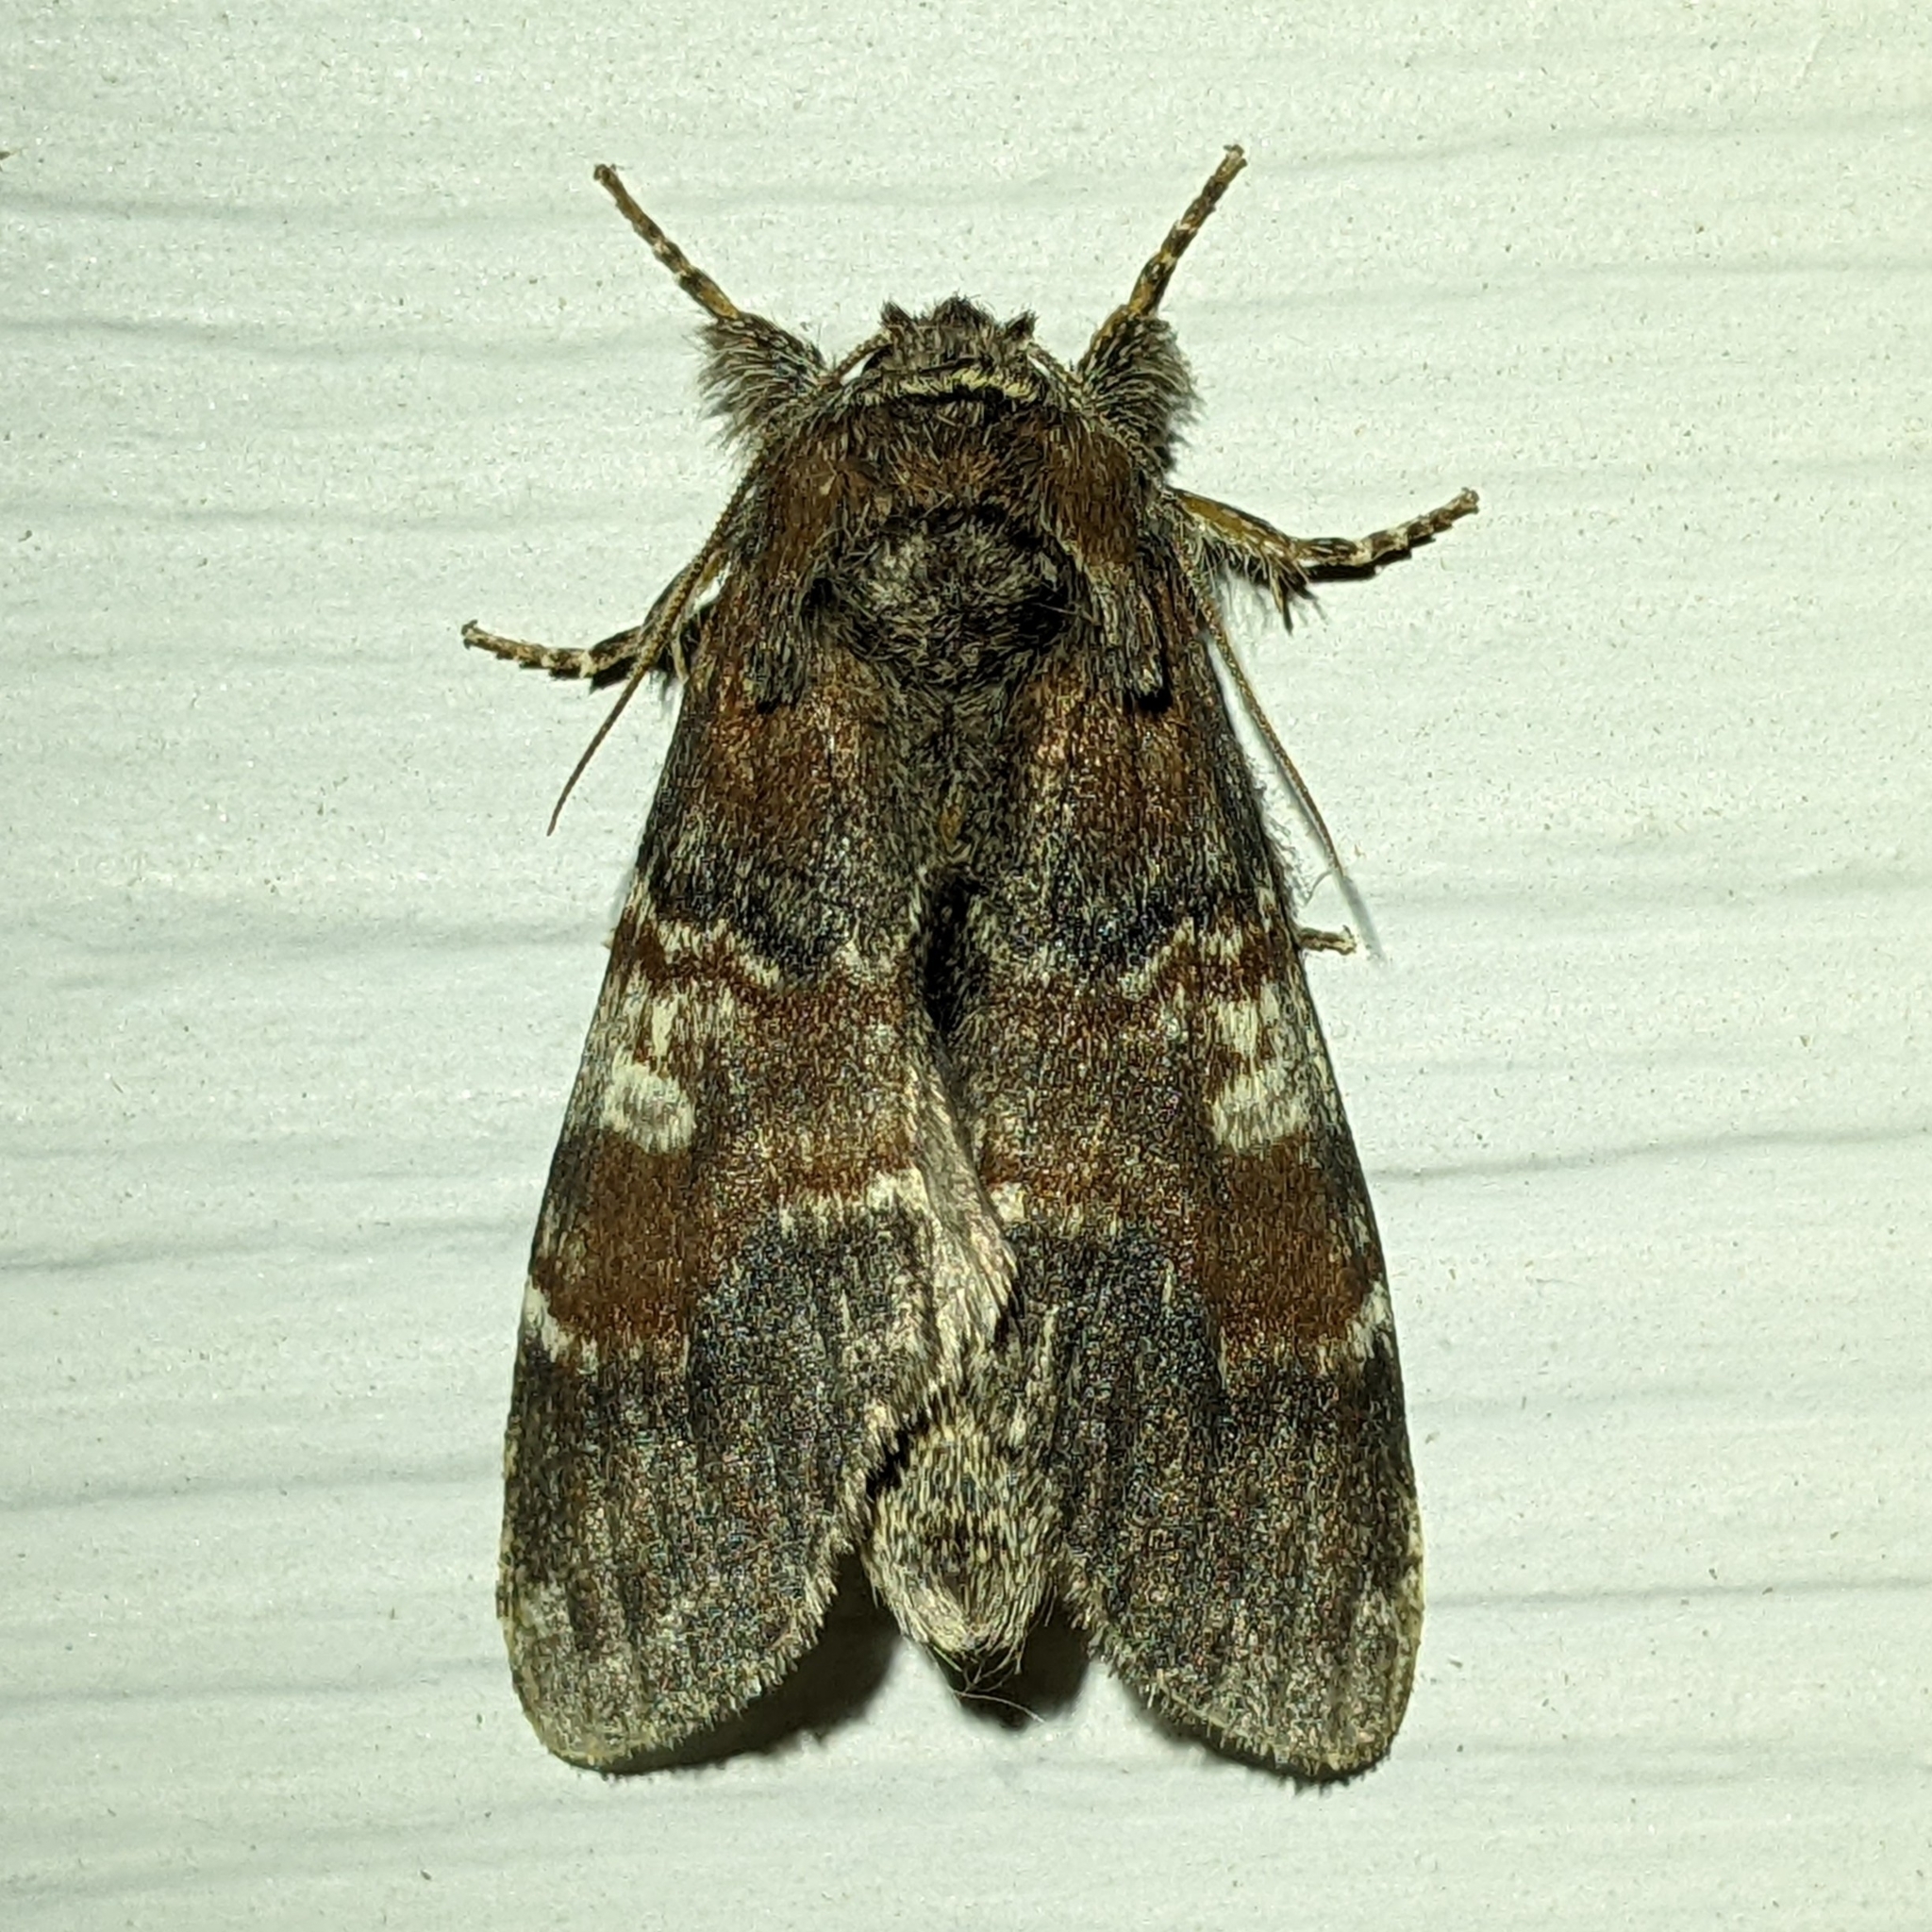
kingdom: Animalia
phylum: Arthropoda
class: Insecta
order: Lepidoptera
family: Notodontidae
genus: Peridea
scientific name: Peridea ferruginea
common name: Chocolate prominent
